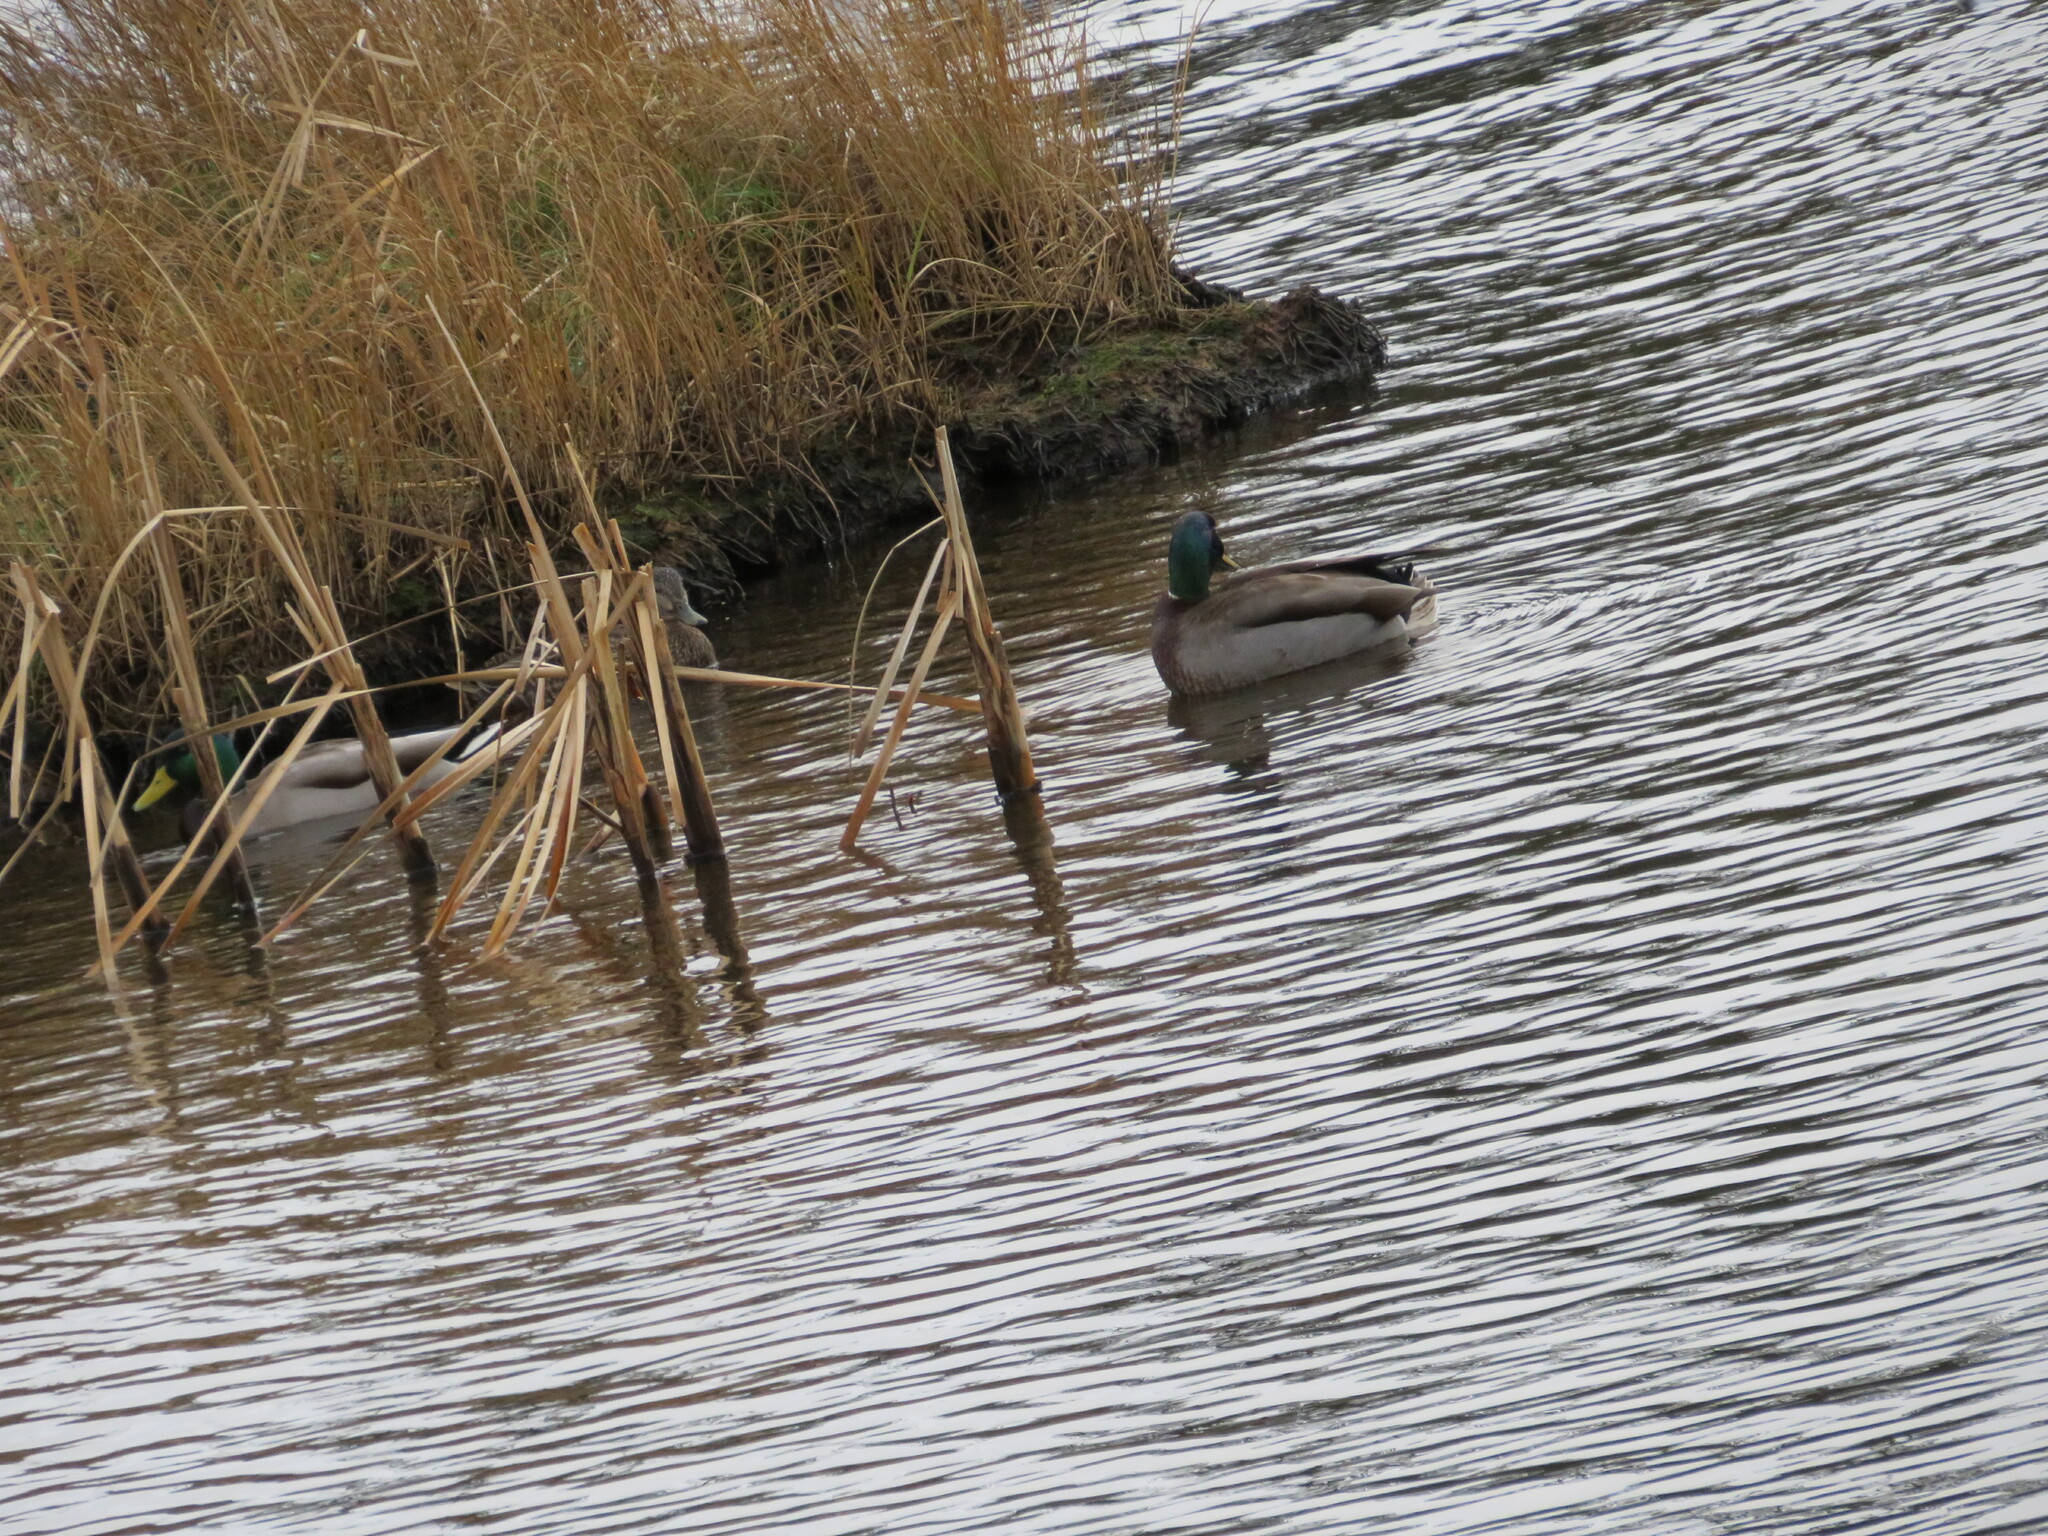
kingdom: Animalia
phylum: Chordata
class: Aves
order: Anseriformes
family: Anatidae
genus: Anas
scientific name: Anas platyrhynchos
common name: Mallard
